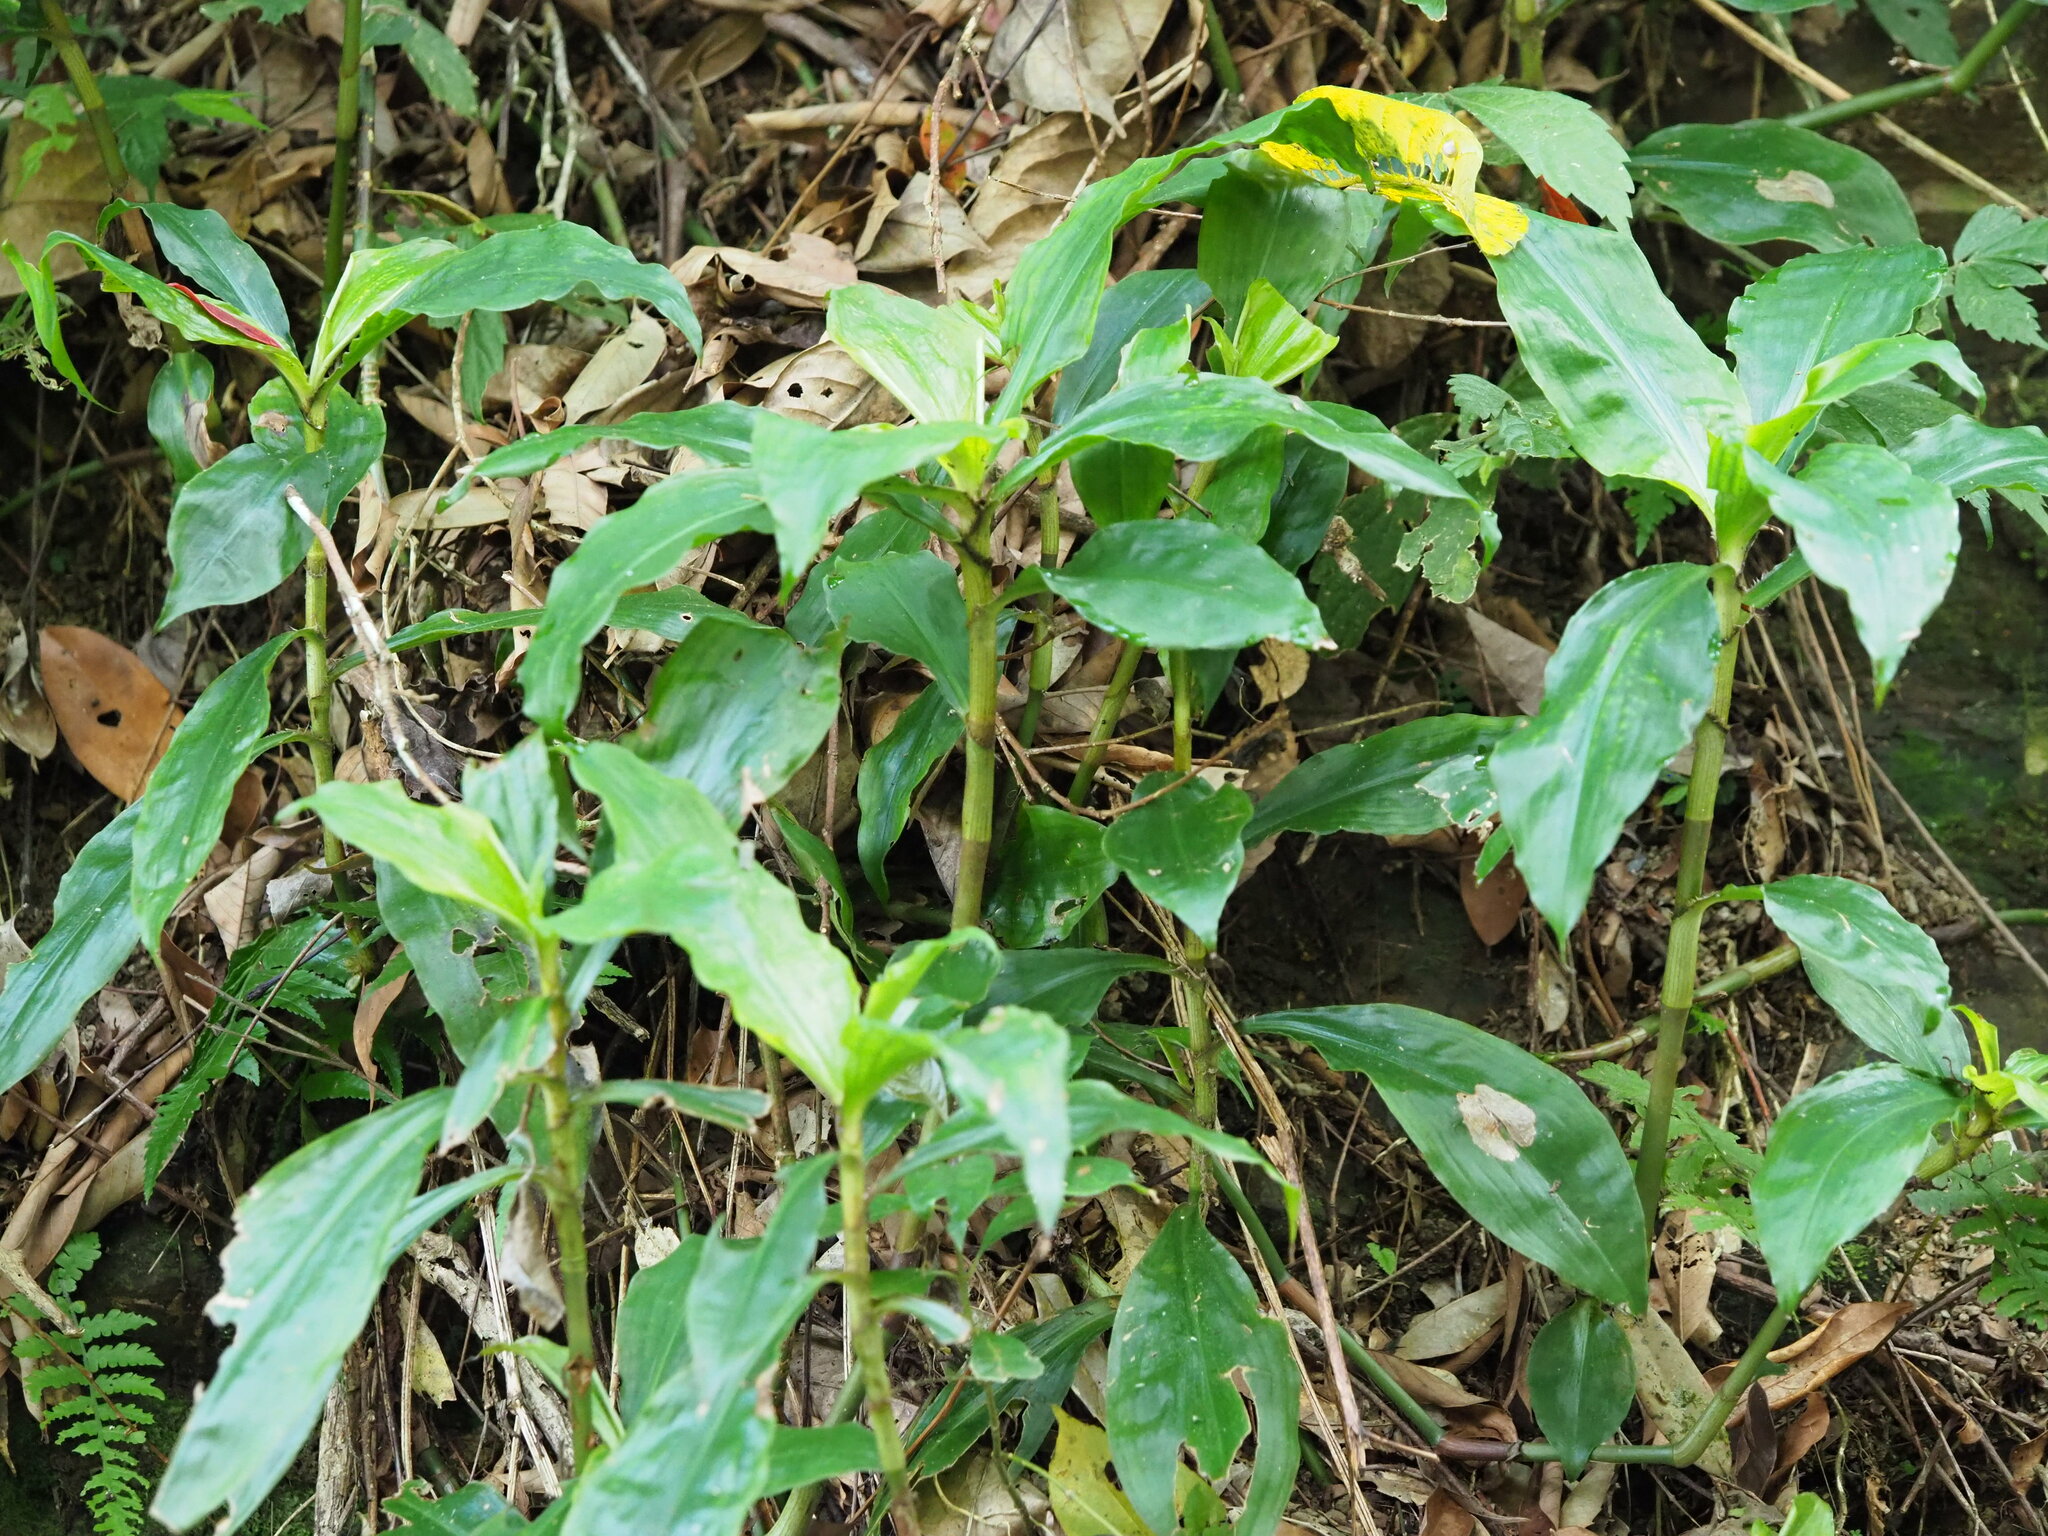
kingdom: Plantae
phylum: Tracheophyta
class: Liliopsida
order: Commelinales
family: Commelinaceae
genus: Amischotolype
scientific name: Amischotolype glabrata
